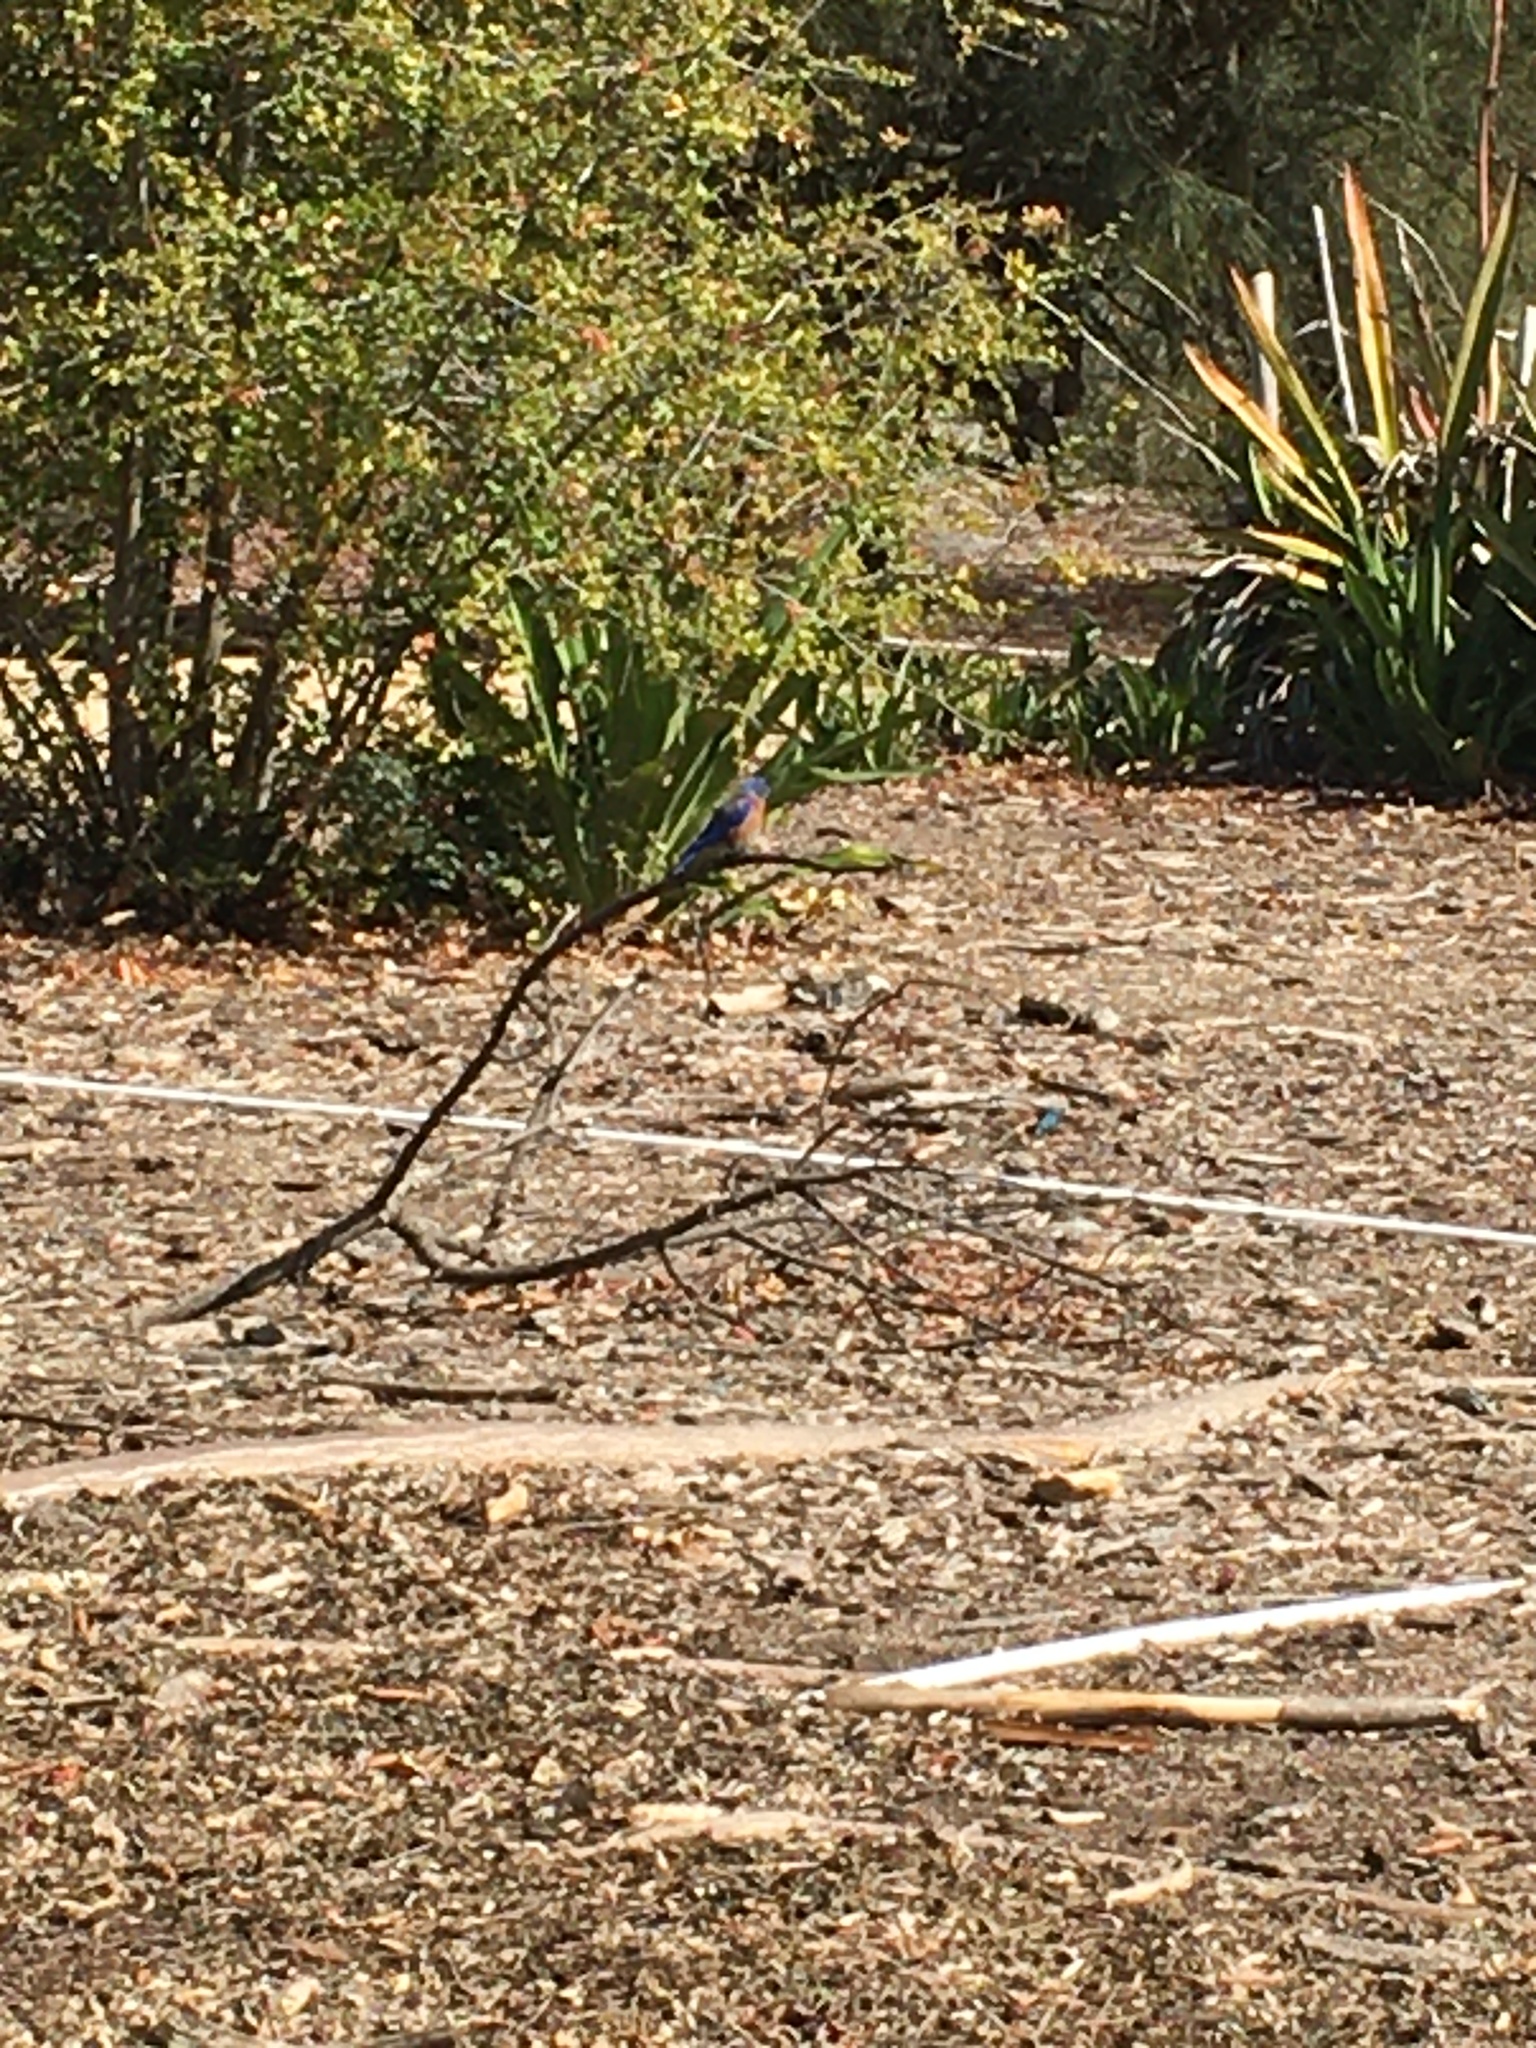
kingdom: Animalia
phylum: Chordata
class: Aves
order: Passeriformes
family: Turdidae
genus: Sialia
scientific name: Sialia mexicana
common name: Western bluebird
